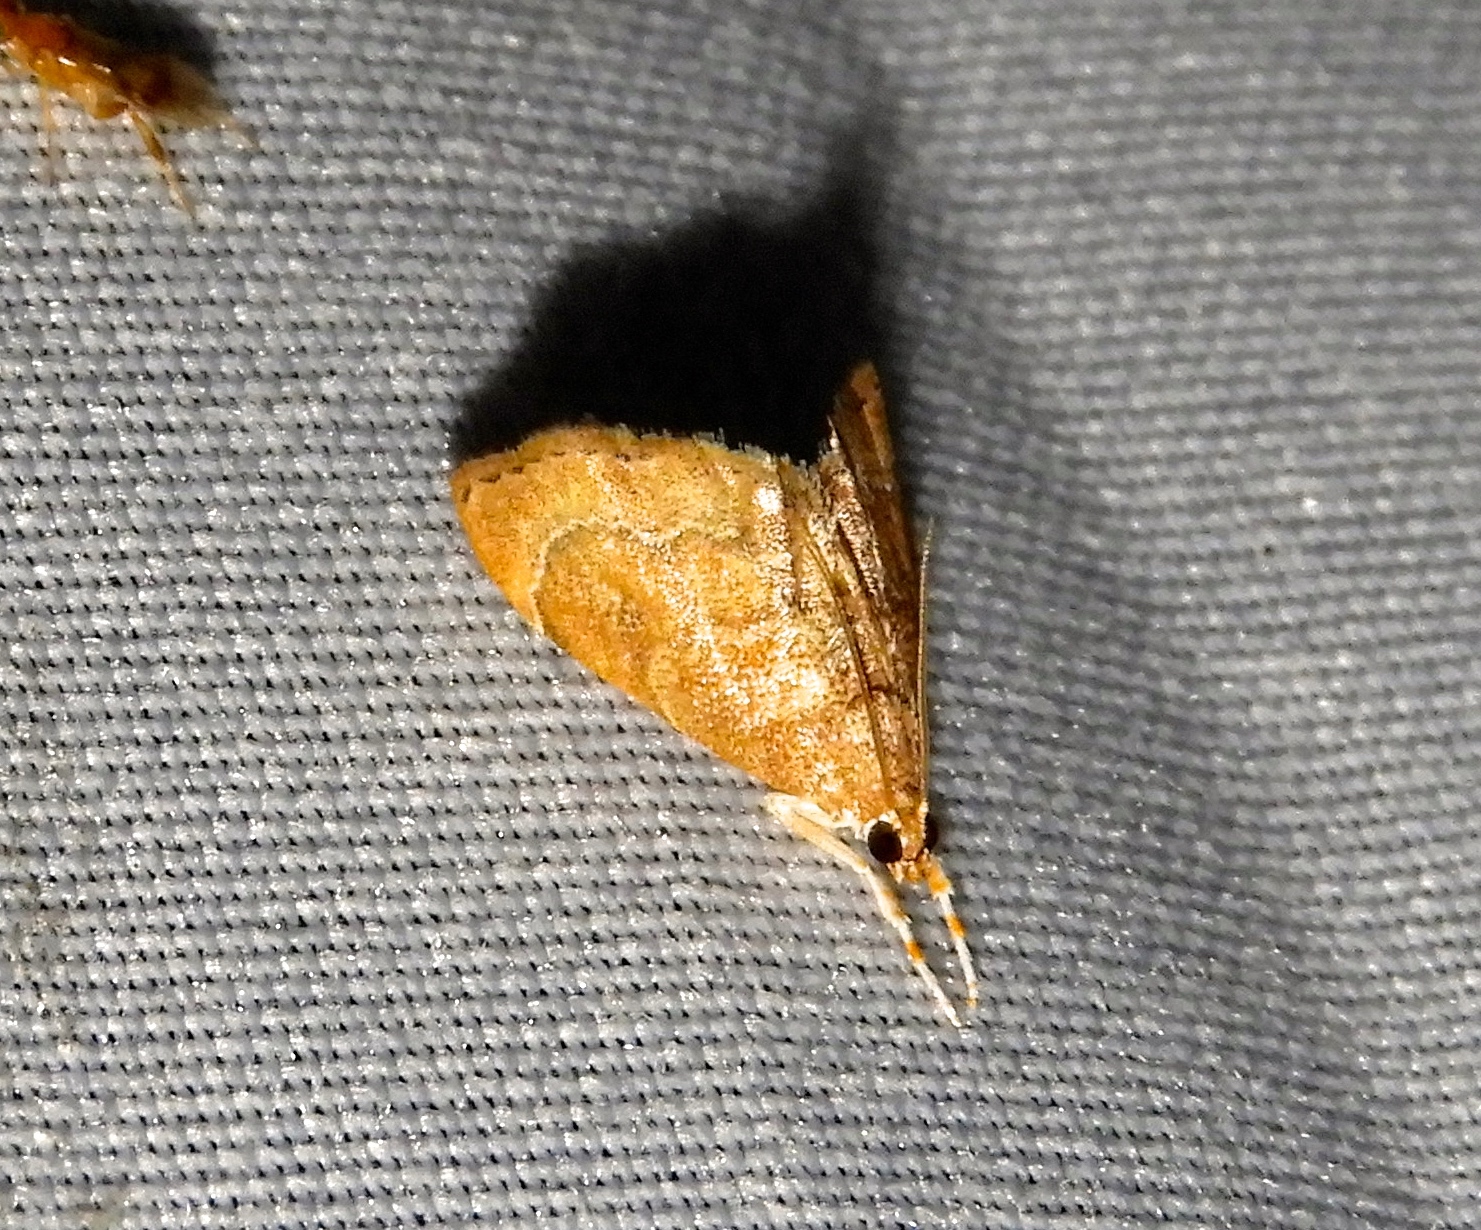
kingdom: Animalia
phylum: Arthropoda
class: Insecta
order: Lepidoptera
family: Crambidae
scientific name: Crambidae
